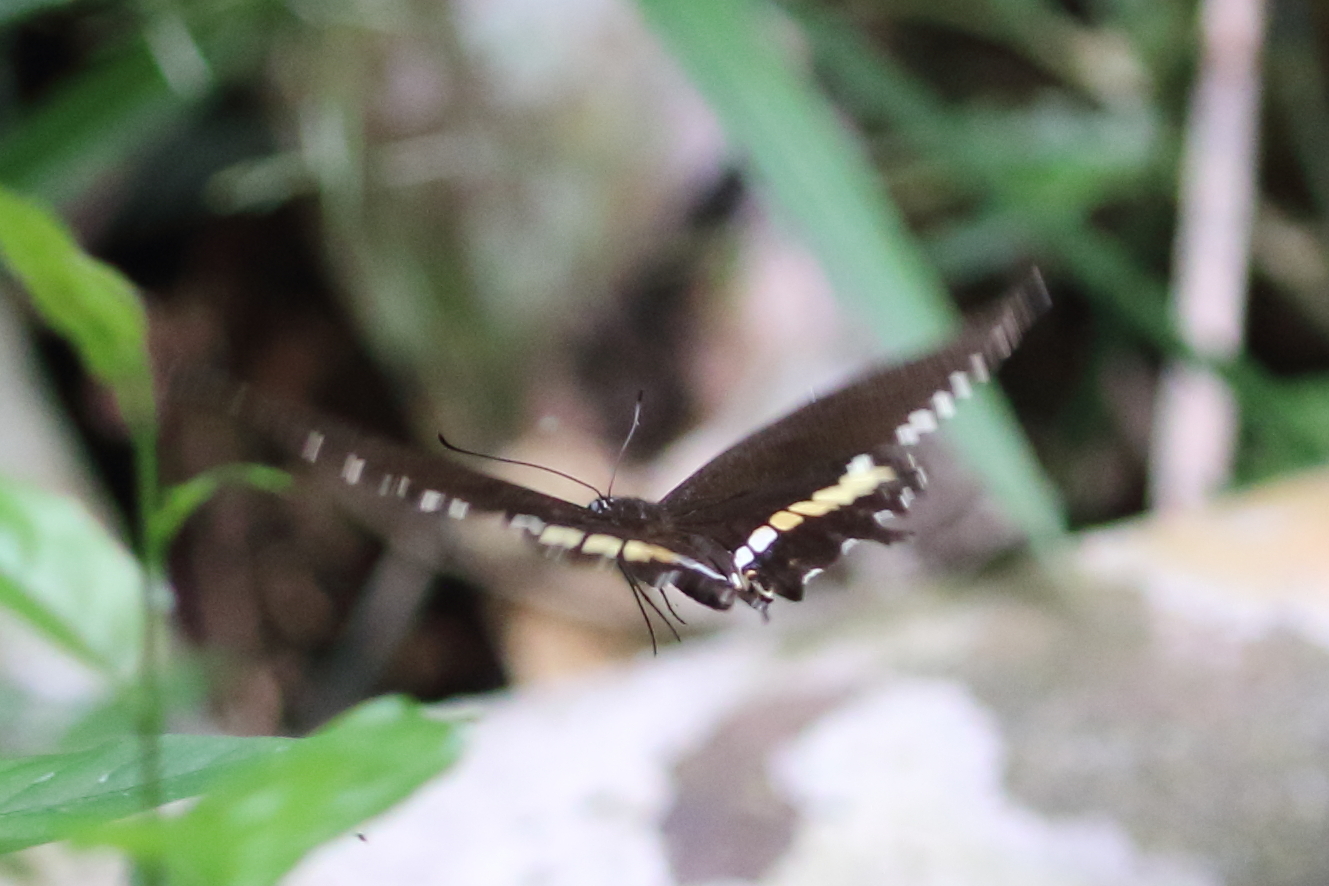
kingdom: Animalia
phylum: Arthropoda
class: Insecta
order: Lepidoptera
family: Papilionidae
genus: Papilio
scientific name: Papilio polytes
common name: Common mormon
